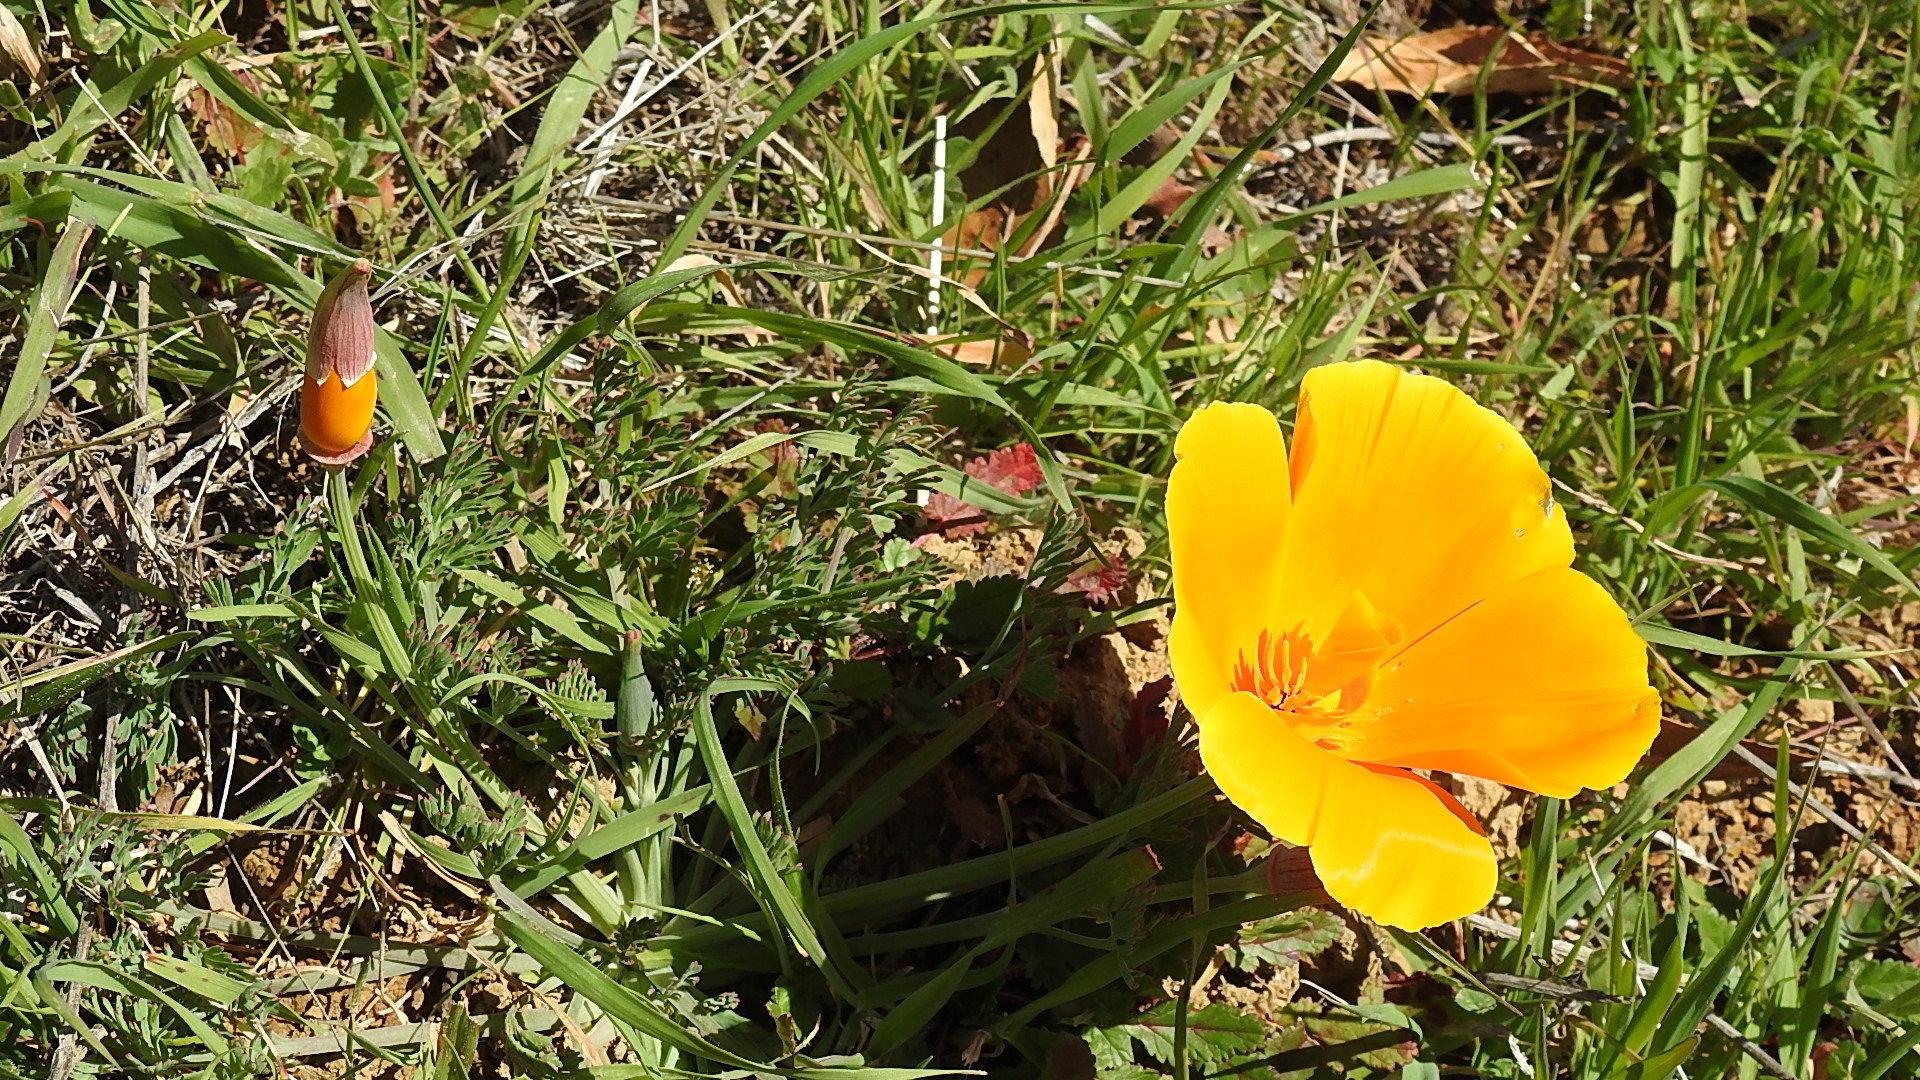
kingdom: Plantae
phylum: Tracheophyta
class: Magnoliopsida
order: Ranunculales
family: Papaveraceae
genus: Eschscholzia
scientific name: Eschscholzia californica
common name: California poppy
